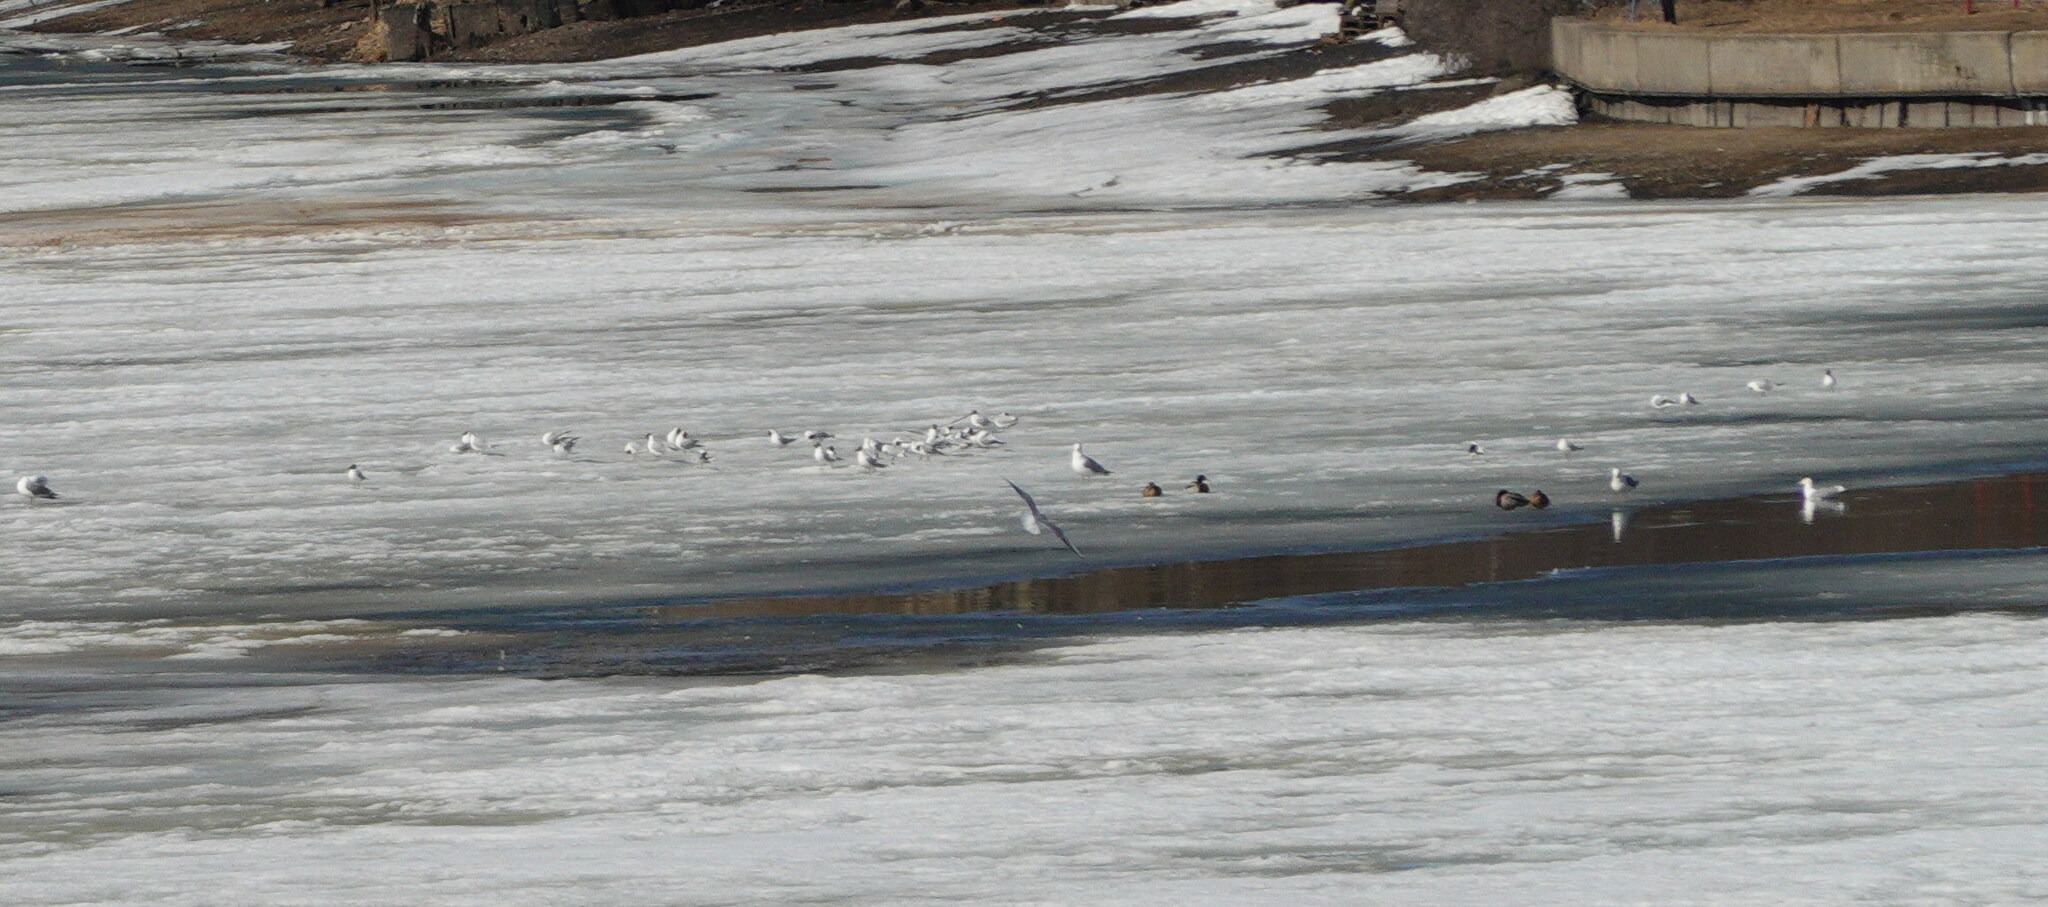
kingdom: Animalia
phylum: Chordata
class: Aves
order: Charadriiformes
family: Laridae
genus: Chroicocephalus
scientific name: Chroicocephalus ridibundus
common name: Black-headed gull
